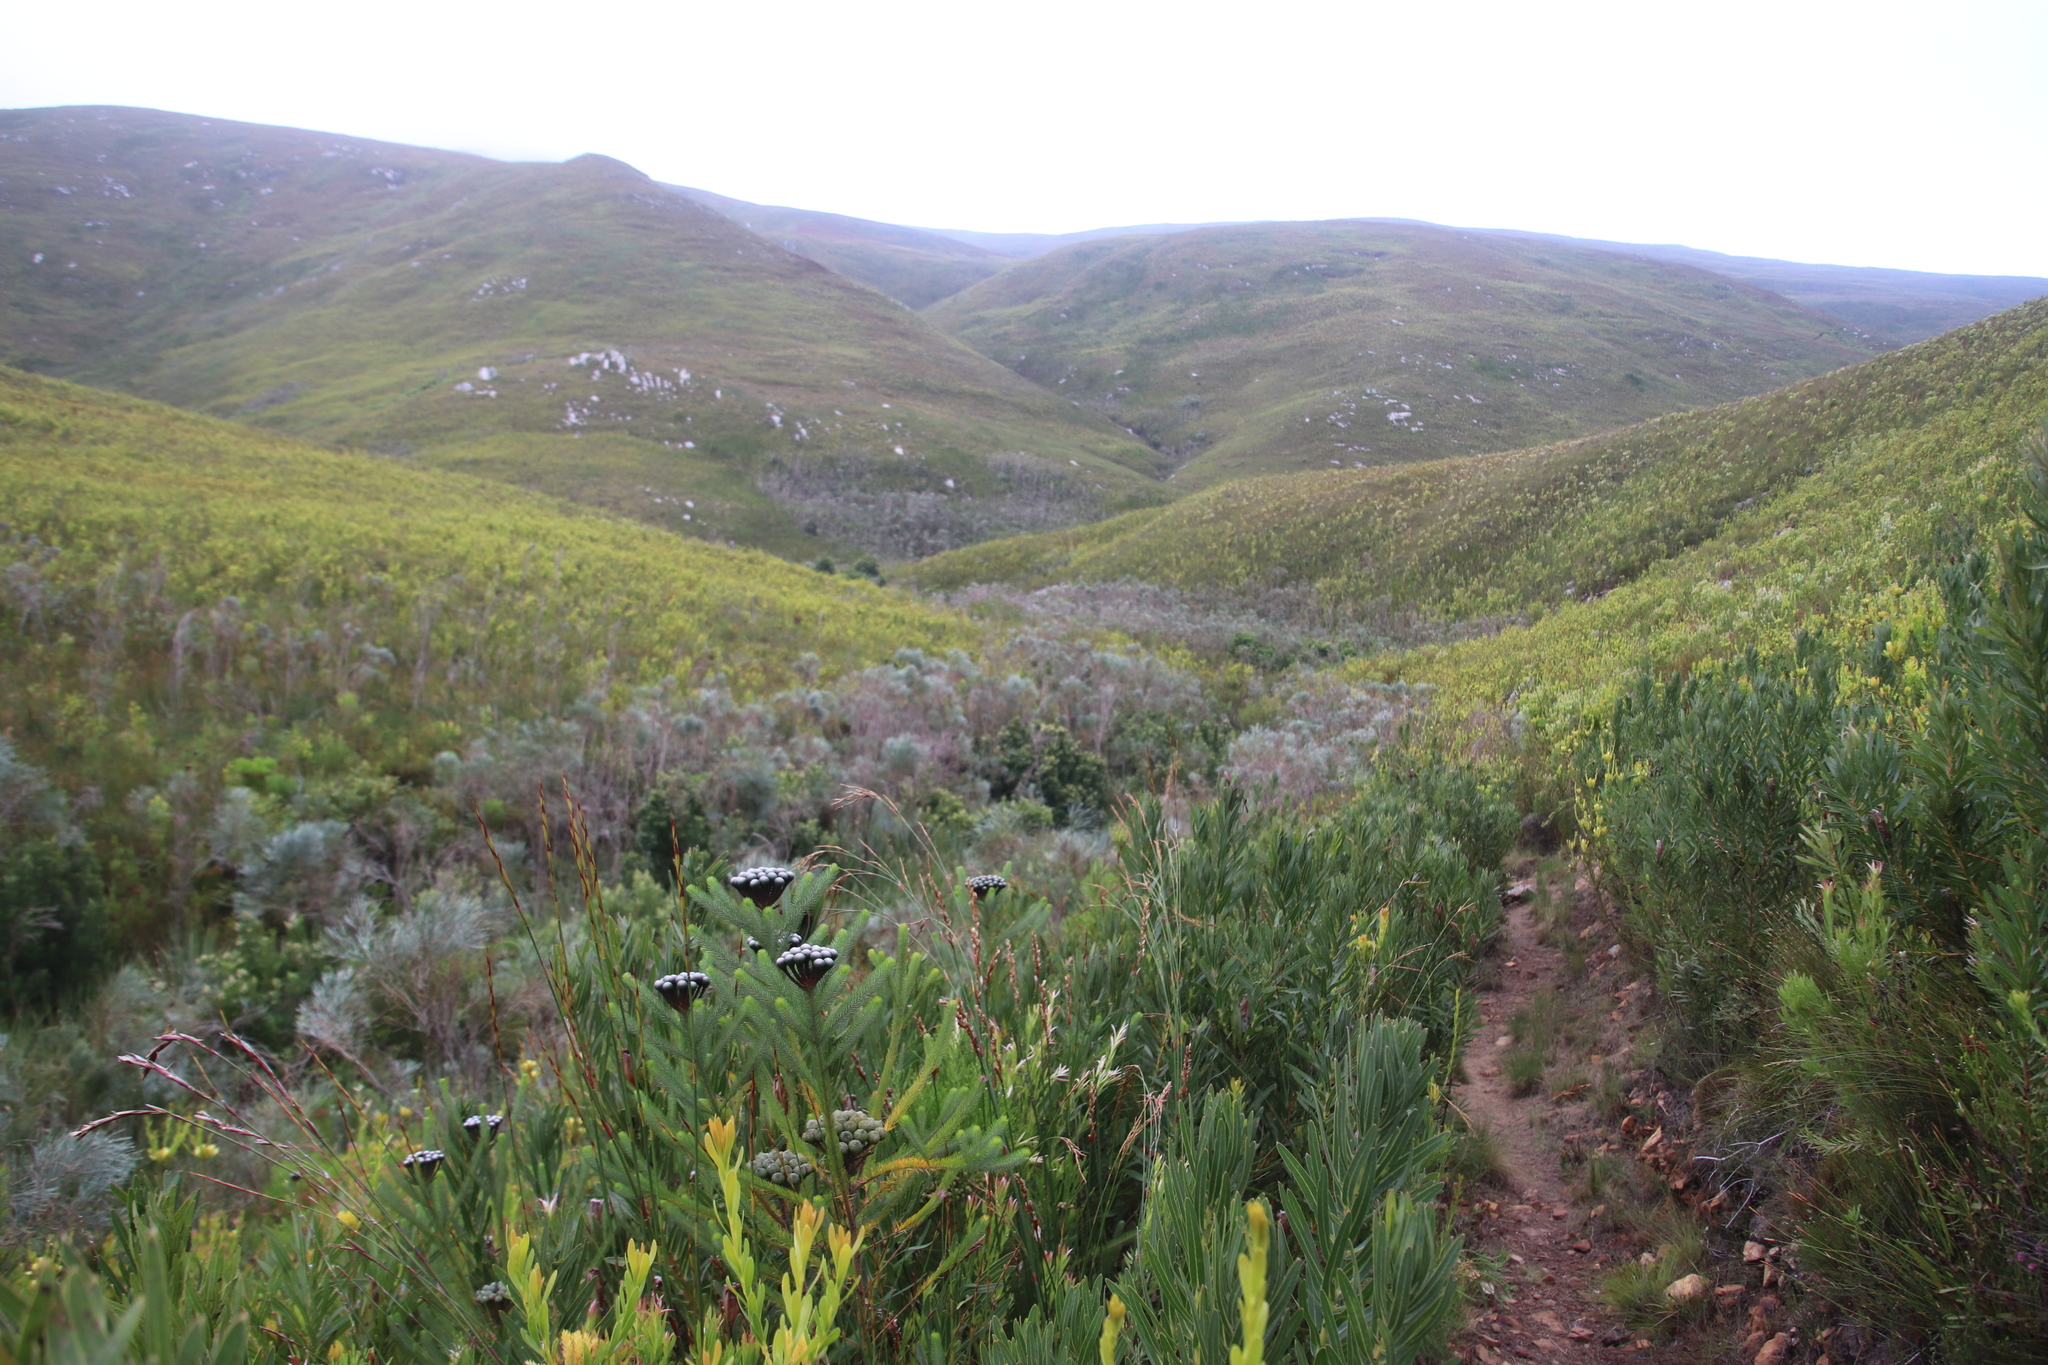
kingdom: Plantae
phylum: Tracheophyta
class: Magnoliopsida
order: Fabales
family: Fabaceae
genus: Psoralea
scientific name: Psoralea pullata
